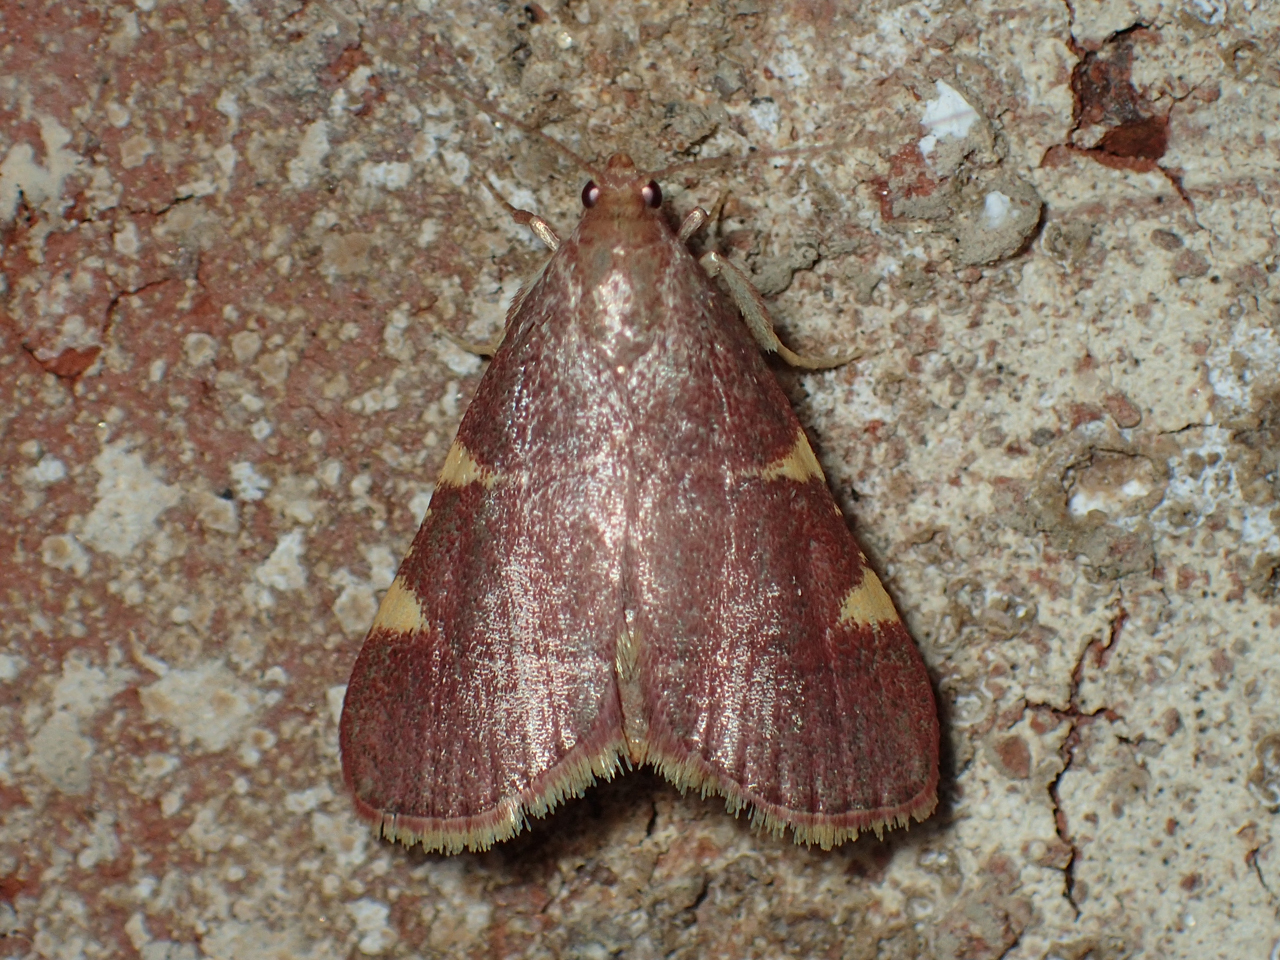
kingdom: Animalia
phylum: Arthropoda
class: Insecta
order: Lepidoptera
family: Pyralidae
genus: Hypsopygia
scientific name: Hypsopygia olinalis
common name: Yellow-fringed dolichomia moth
